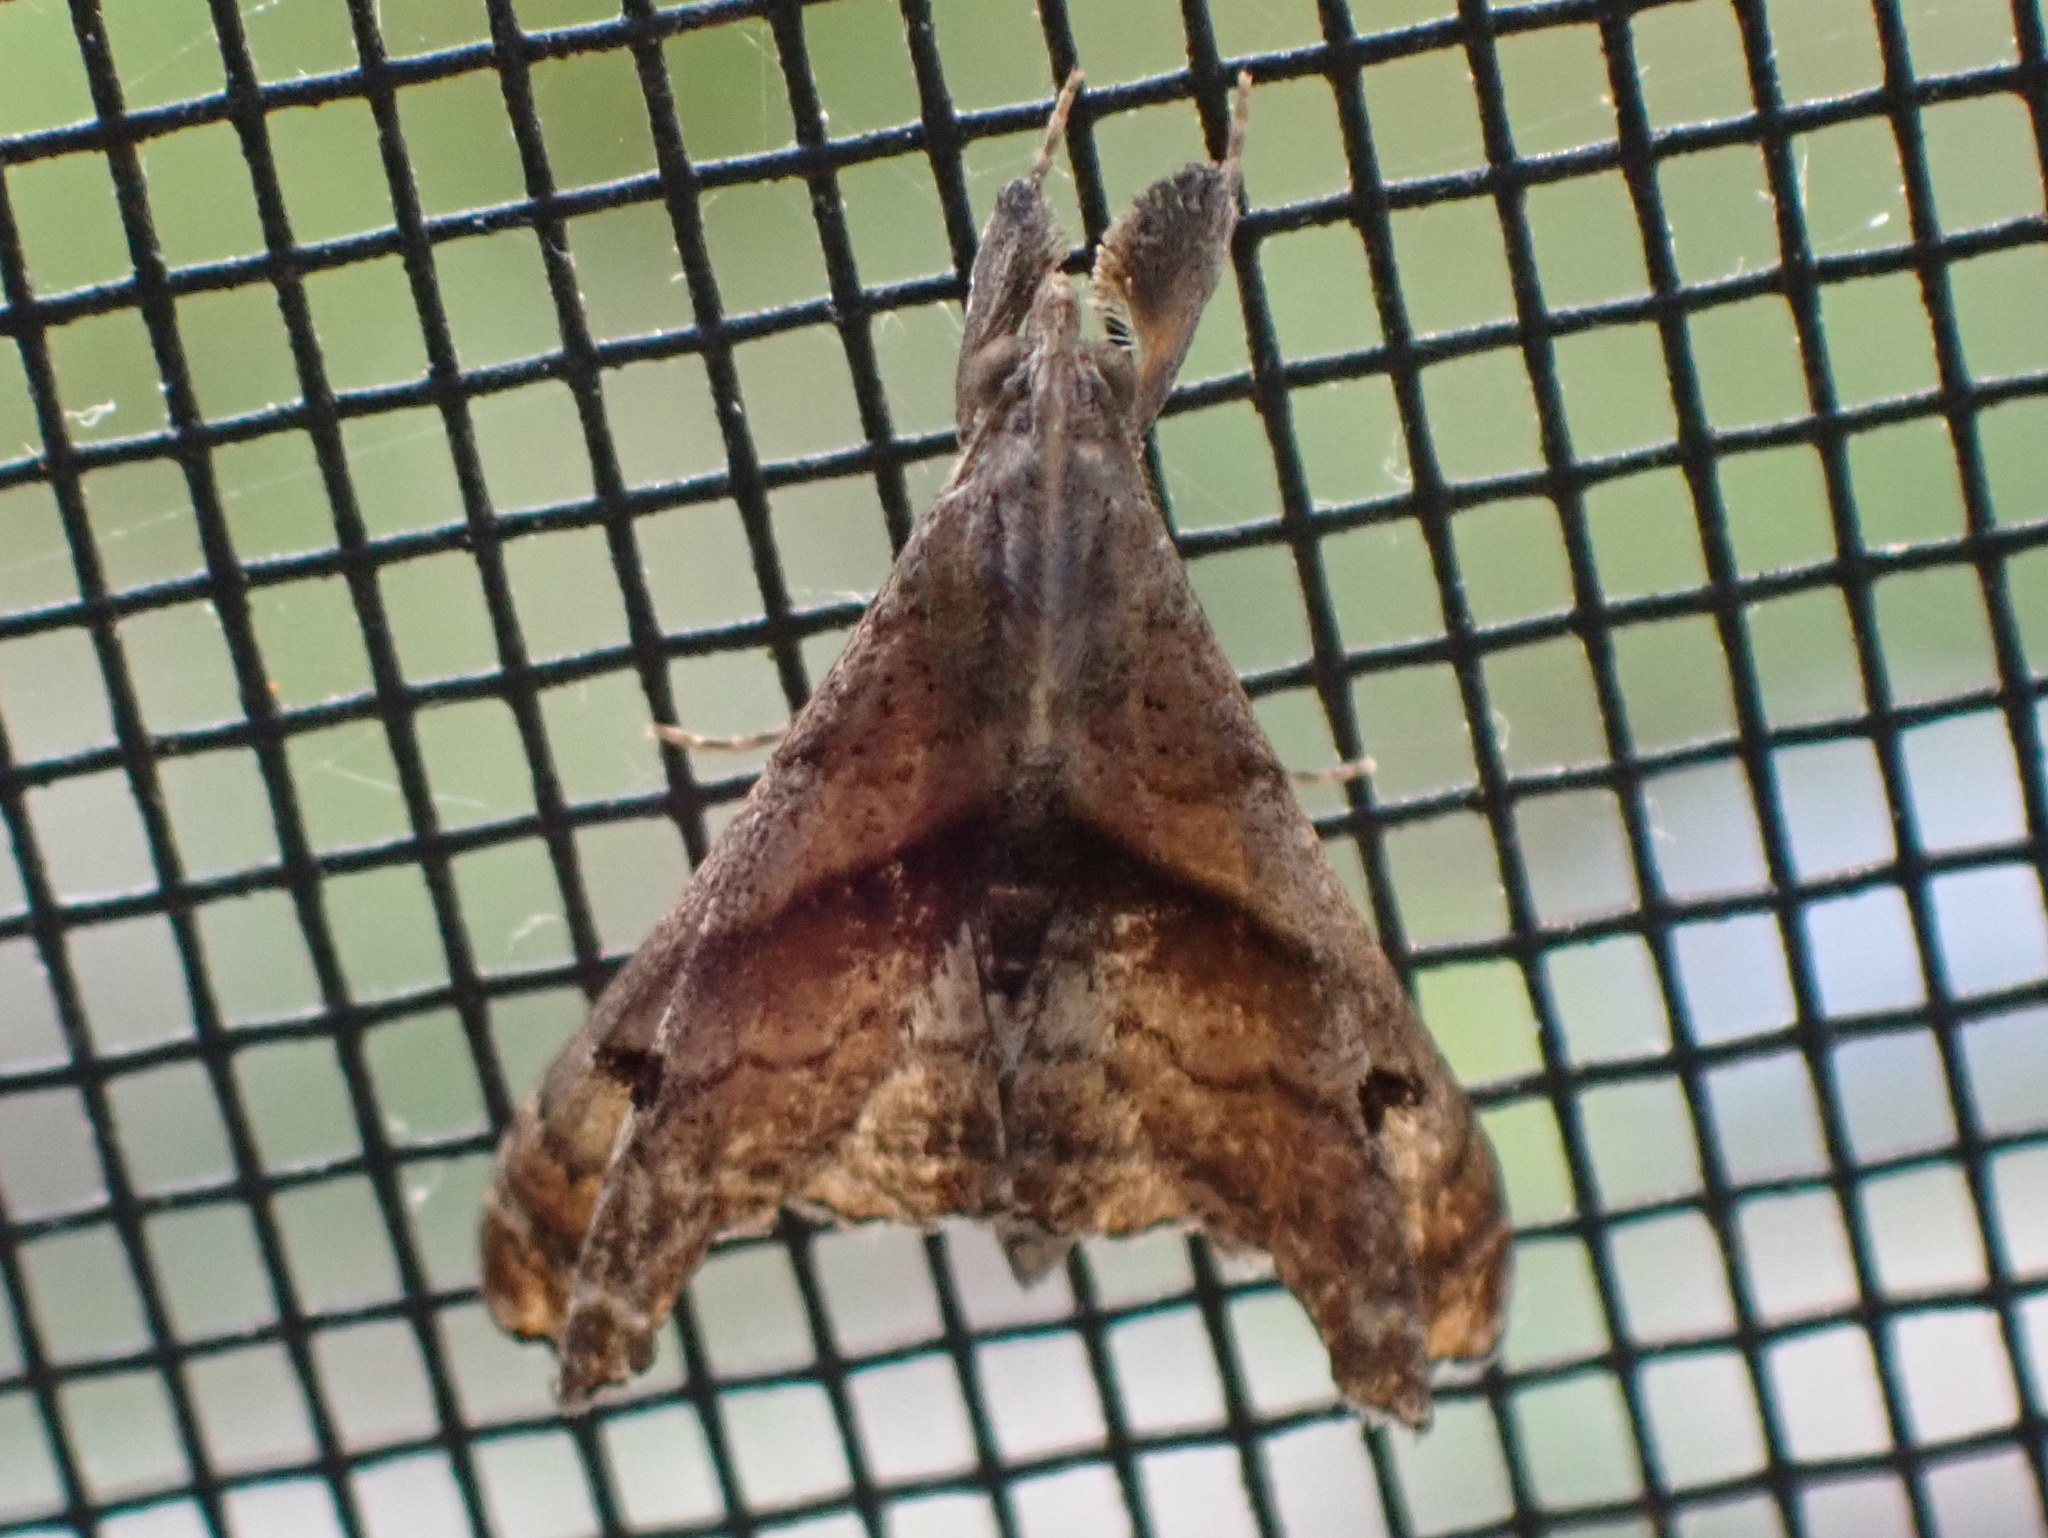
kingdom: Animalia
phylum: Arthropoda
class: Insecta
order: Lepidoptera
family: Erebidae
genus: Palthis
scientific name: Palthis angulalis
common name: Dark-spotted palthis moth
